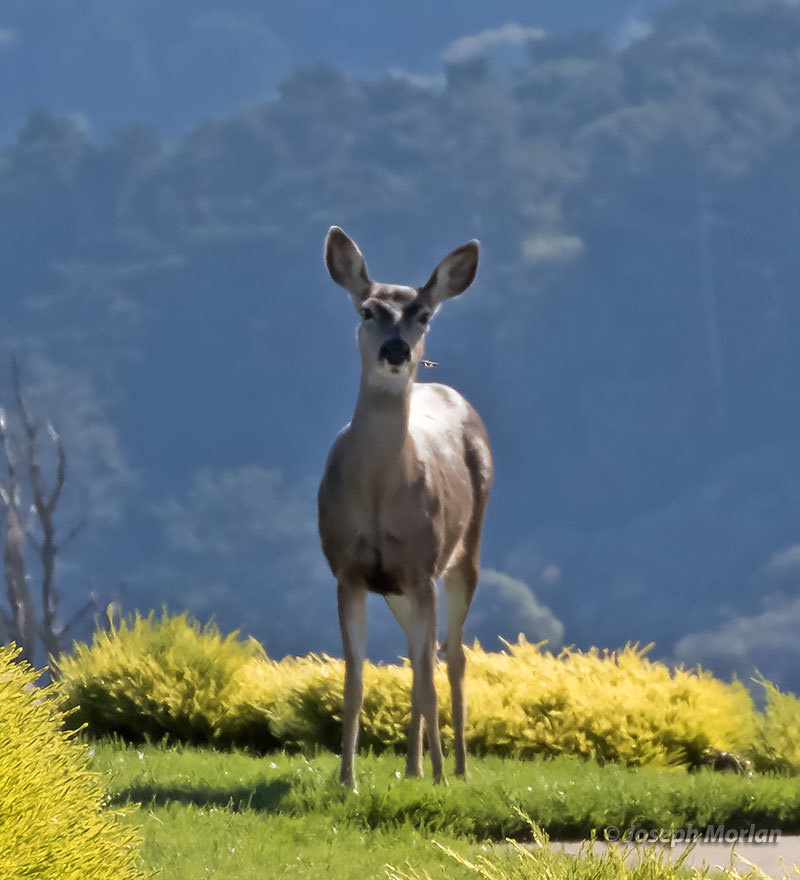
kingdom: Animalia
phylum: Chordata
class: Mammalia
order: Artiodactyla
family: Cervidae
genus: Odocoileus
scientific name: Odocoileus hemionus
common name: Mule deer
